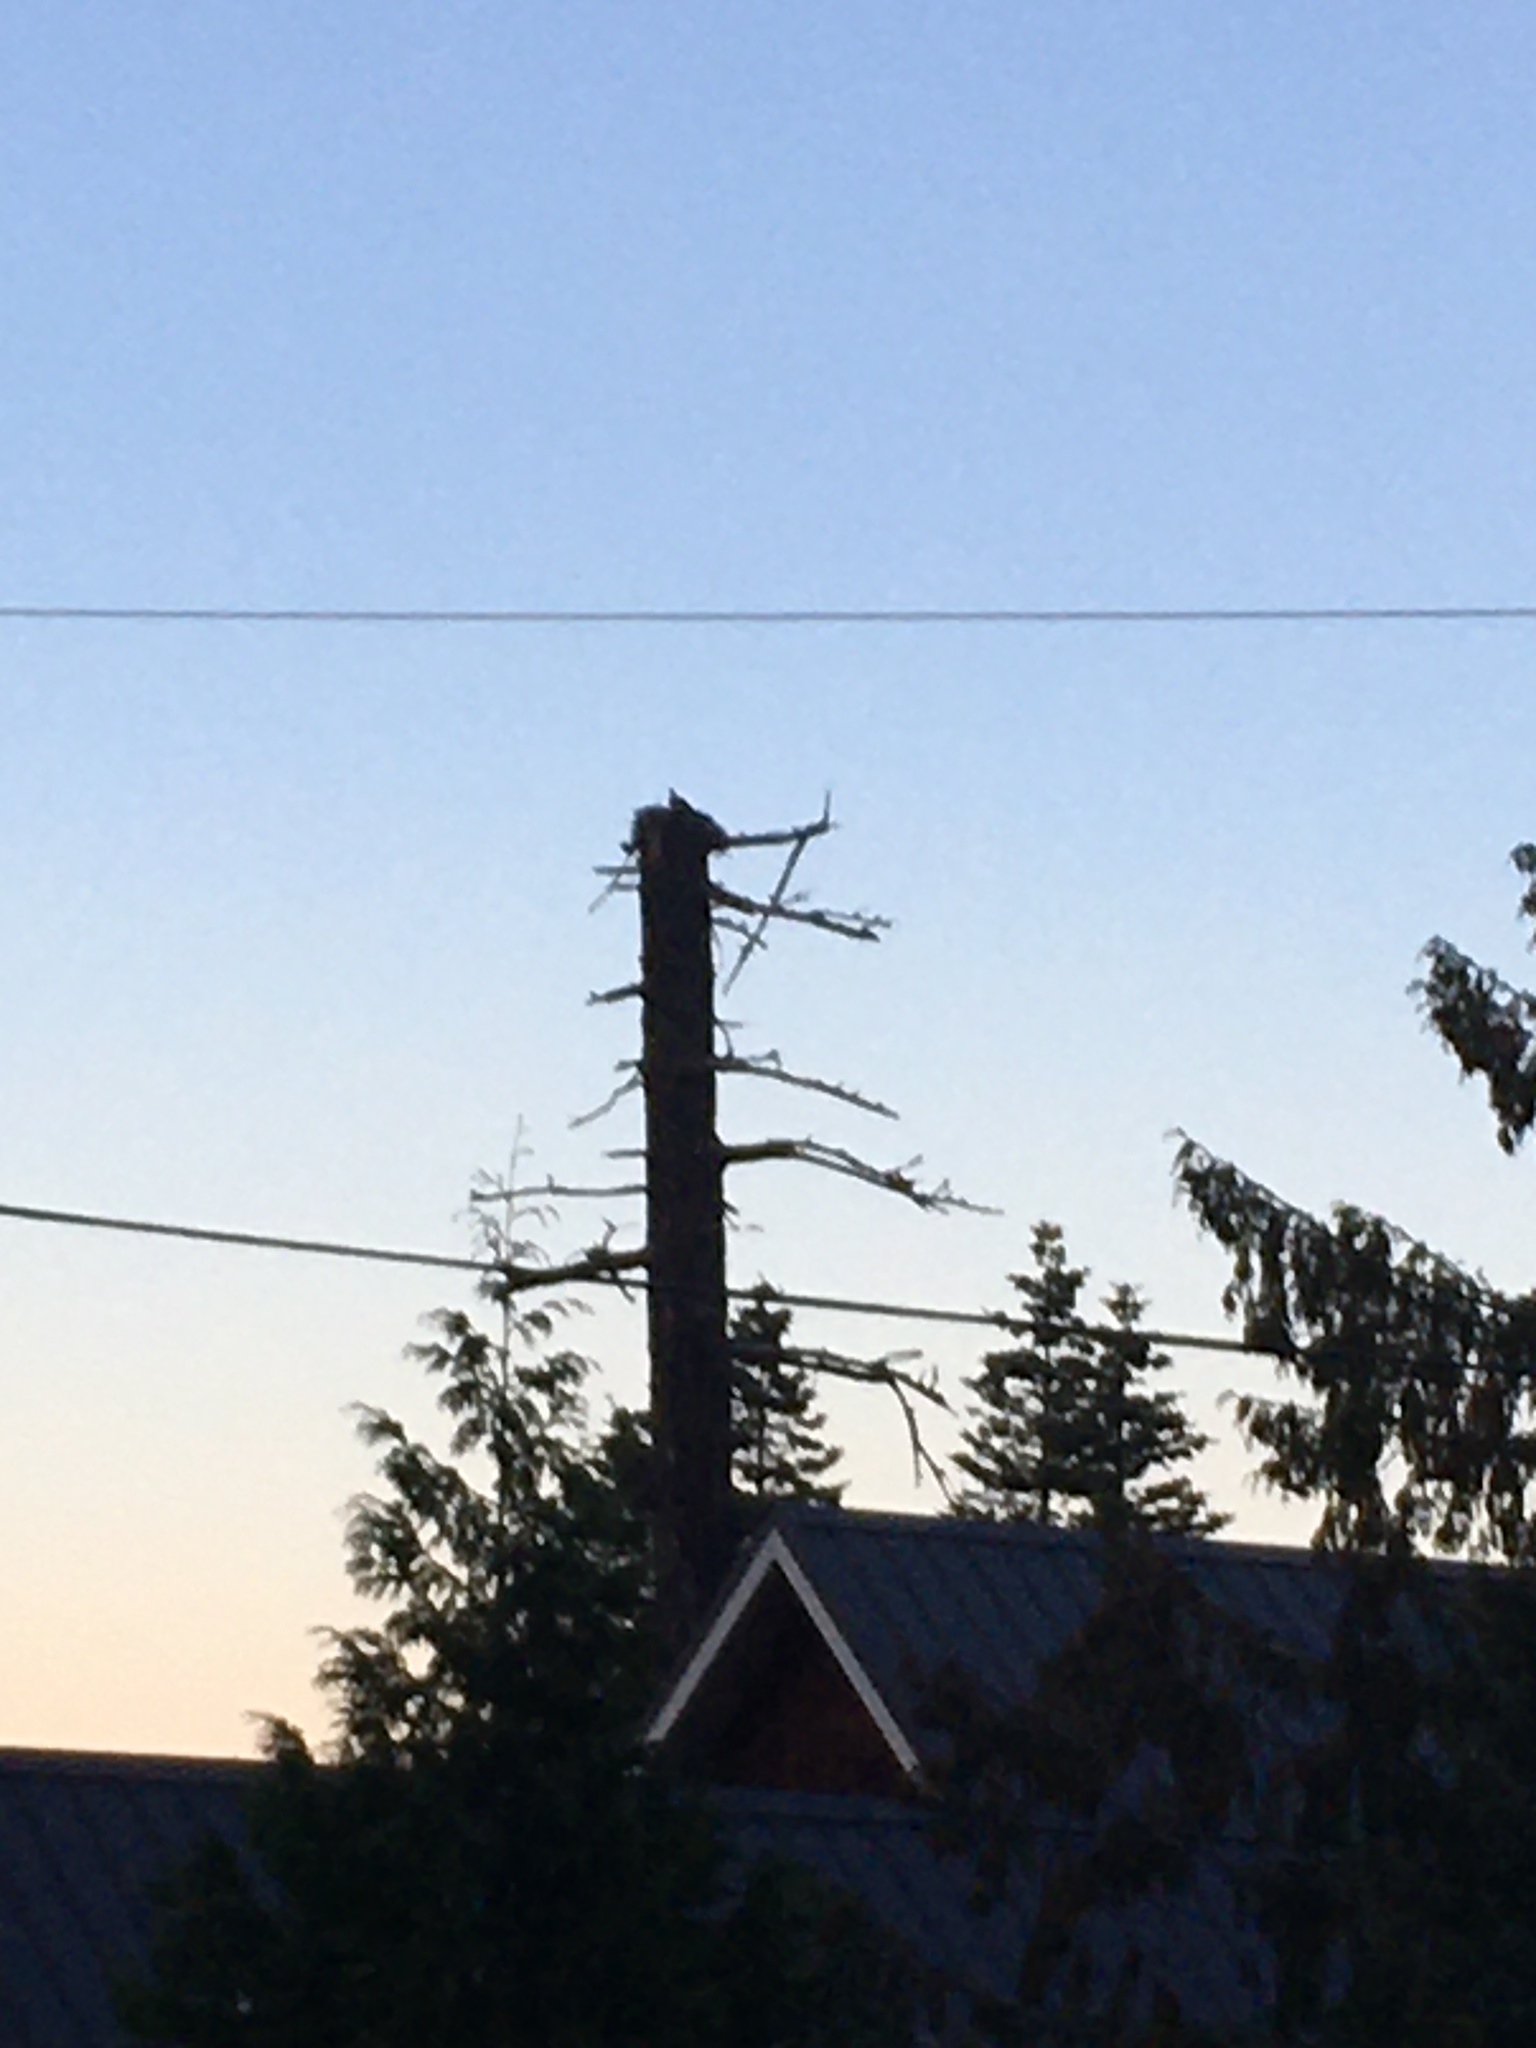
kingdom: Animalia
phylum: Chordata
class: Aves
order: Accipitriformes
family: Pandionidae
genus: Pandion
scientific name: Pandion haliaetus
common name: Osprey
